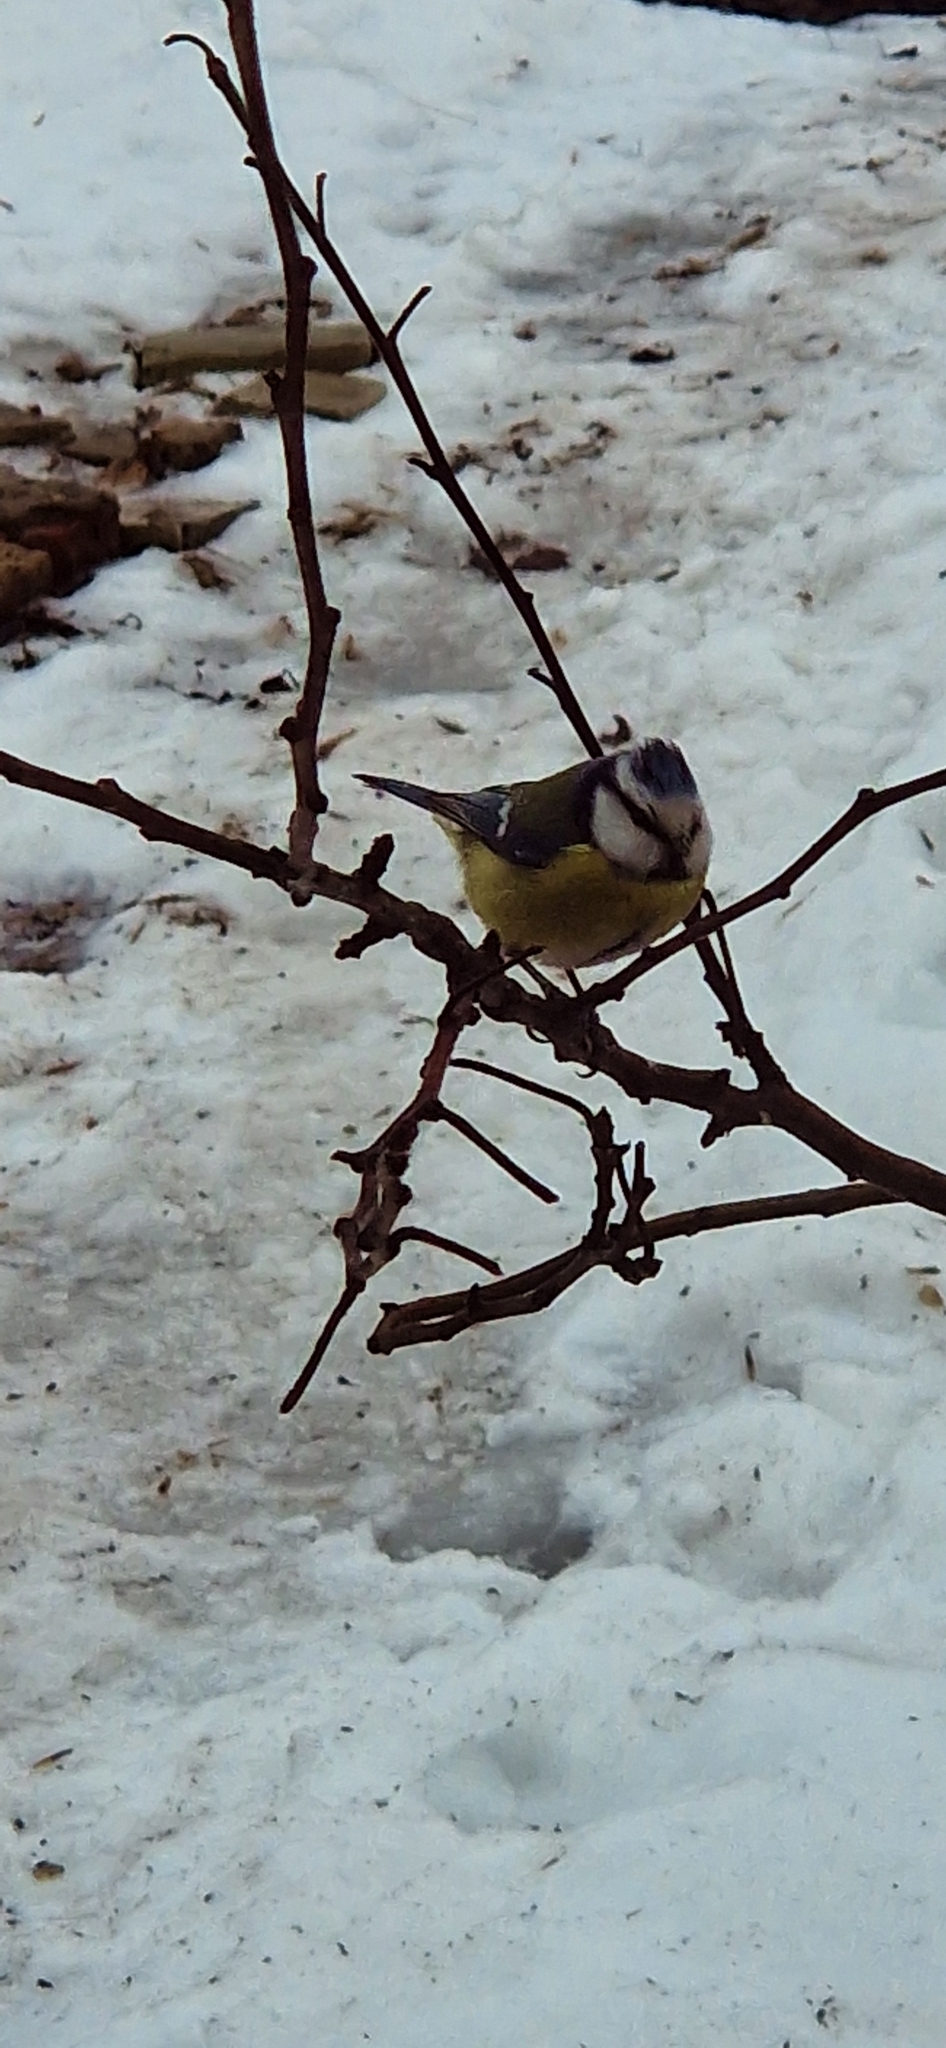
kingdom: Animalia
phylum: Chordata
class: Aves
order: Passeriformes
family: Paridae
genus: Cyanistes
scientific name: Cyanistes caeruleus
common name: Eurasian blue tit
